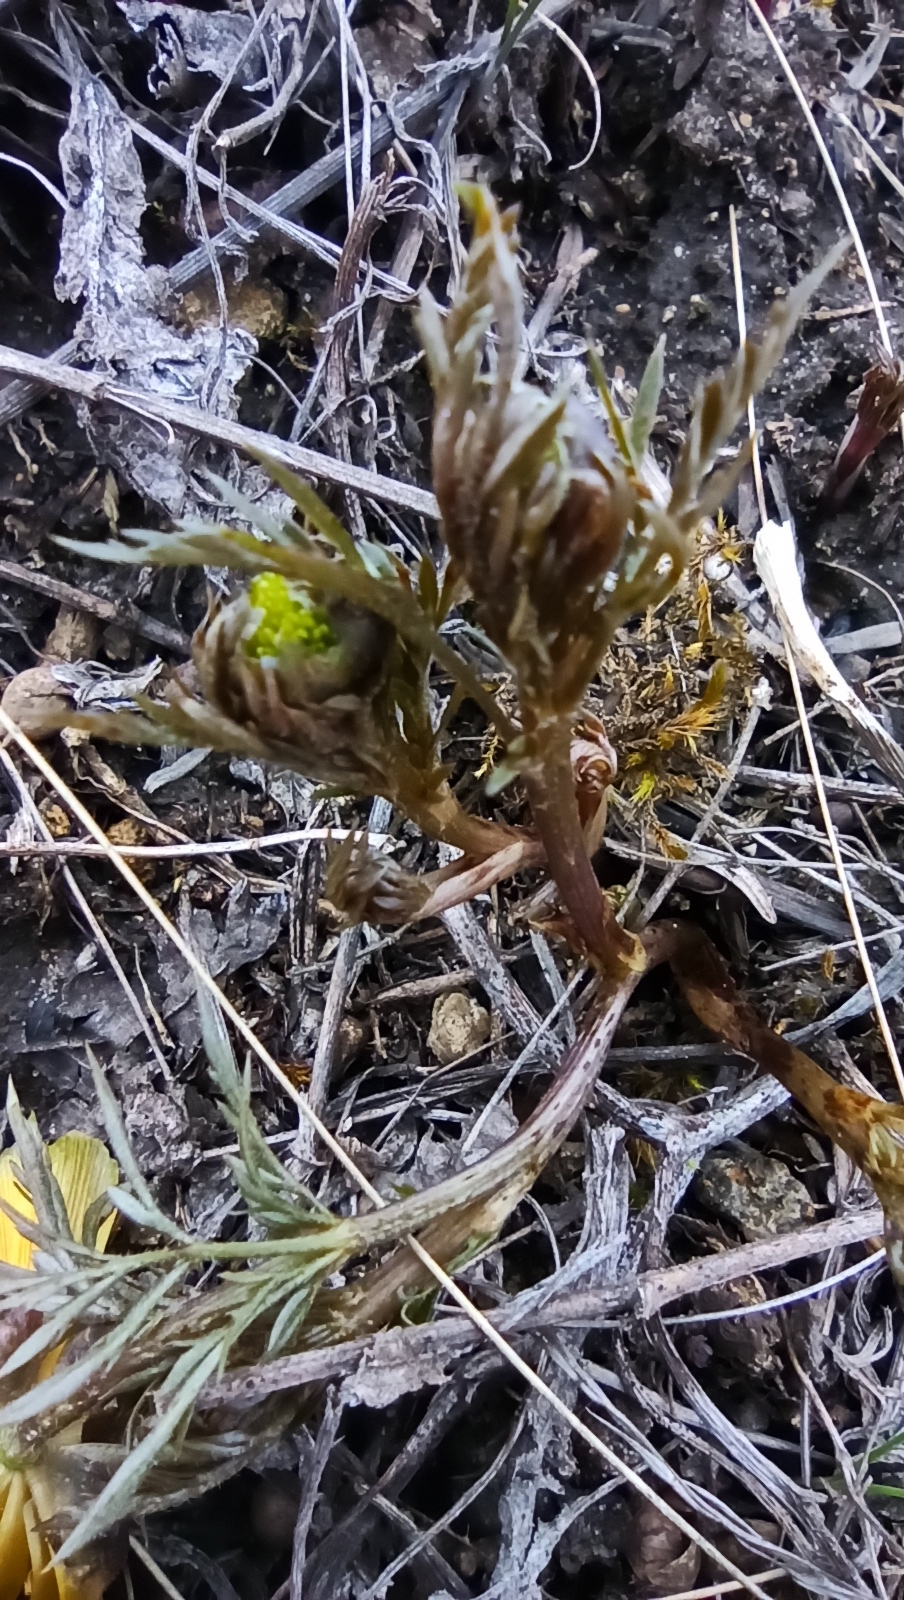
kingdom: Plantae
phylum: Tracheophyta
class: Magnoliopsida
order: Ranunculales
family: Ranunculaceae
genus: Adonis
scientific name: Adonis volgensis
